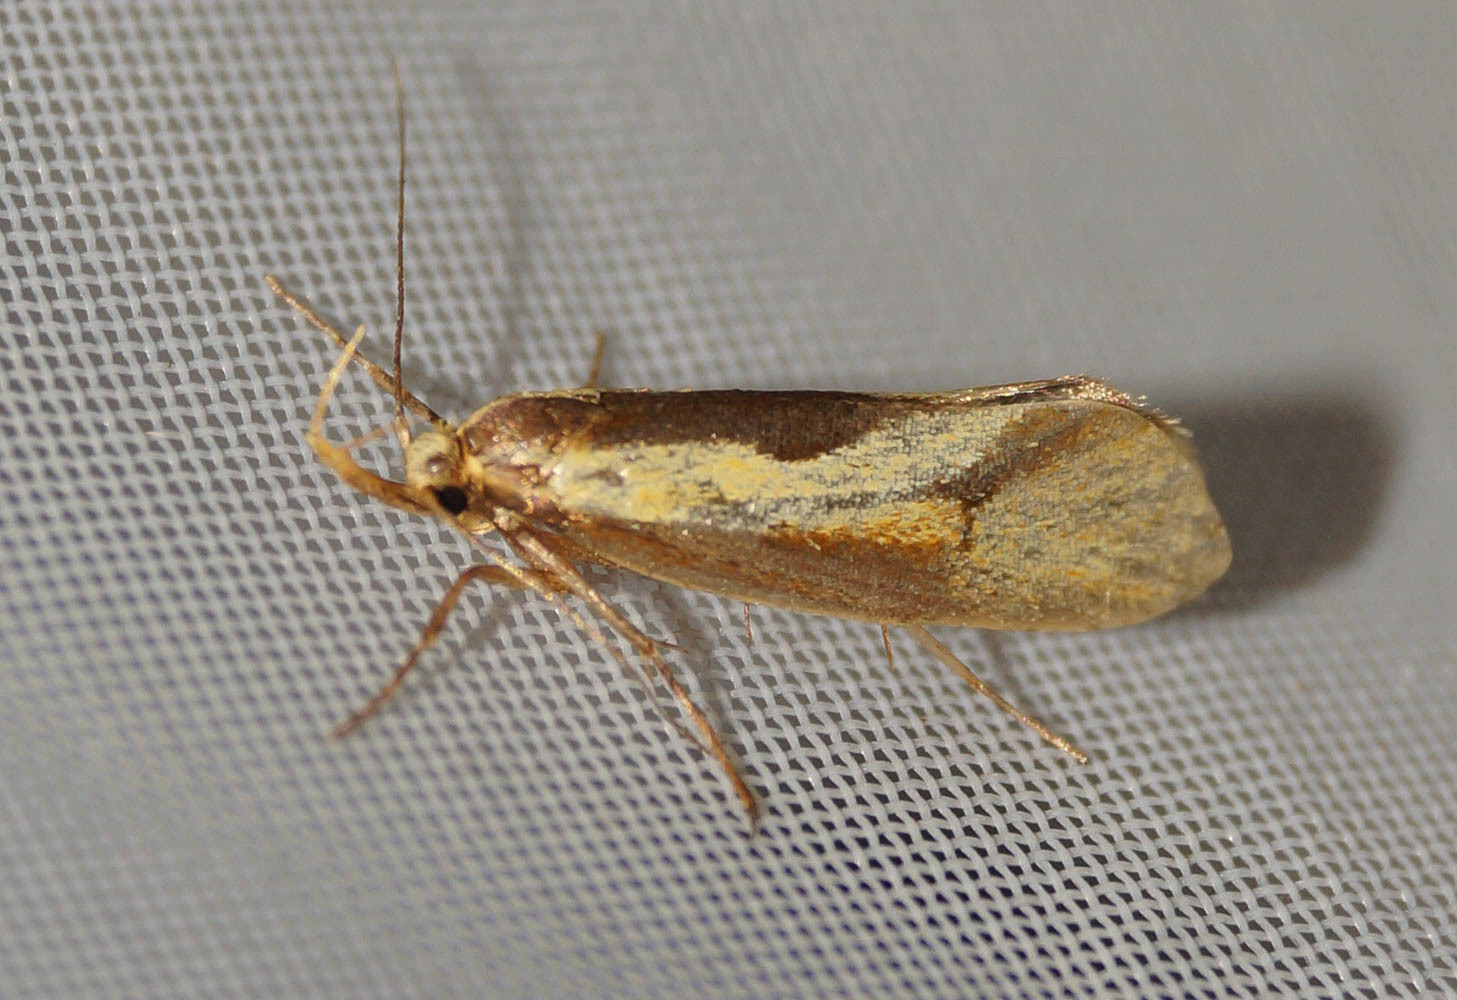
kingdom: Animalia
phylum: Arthropoda
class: Insecta
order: Lepidoptera
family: Oecophoridae
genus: Harpella
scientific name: Harpella forficella
